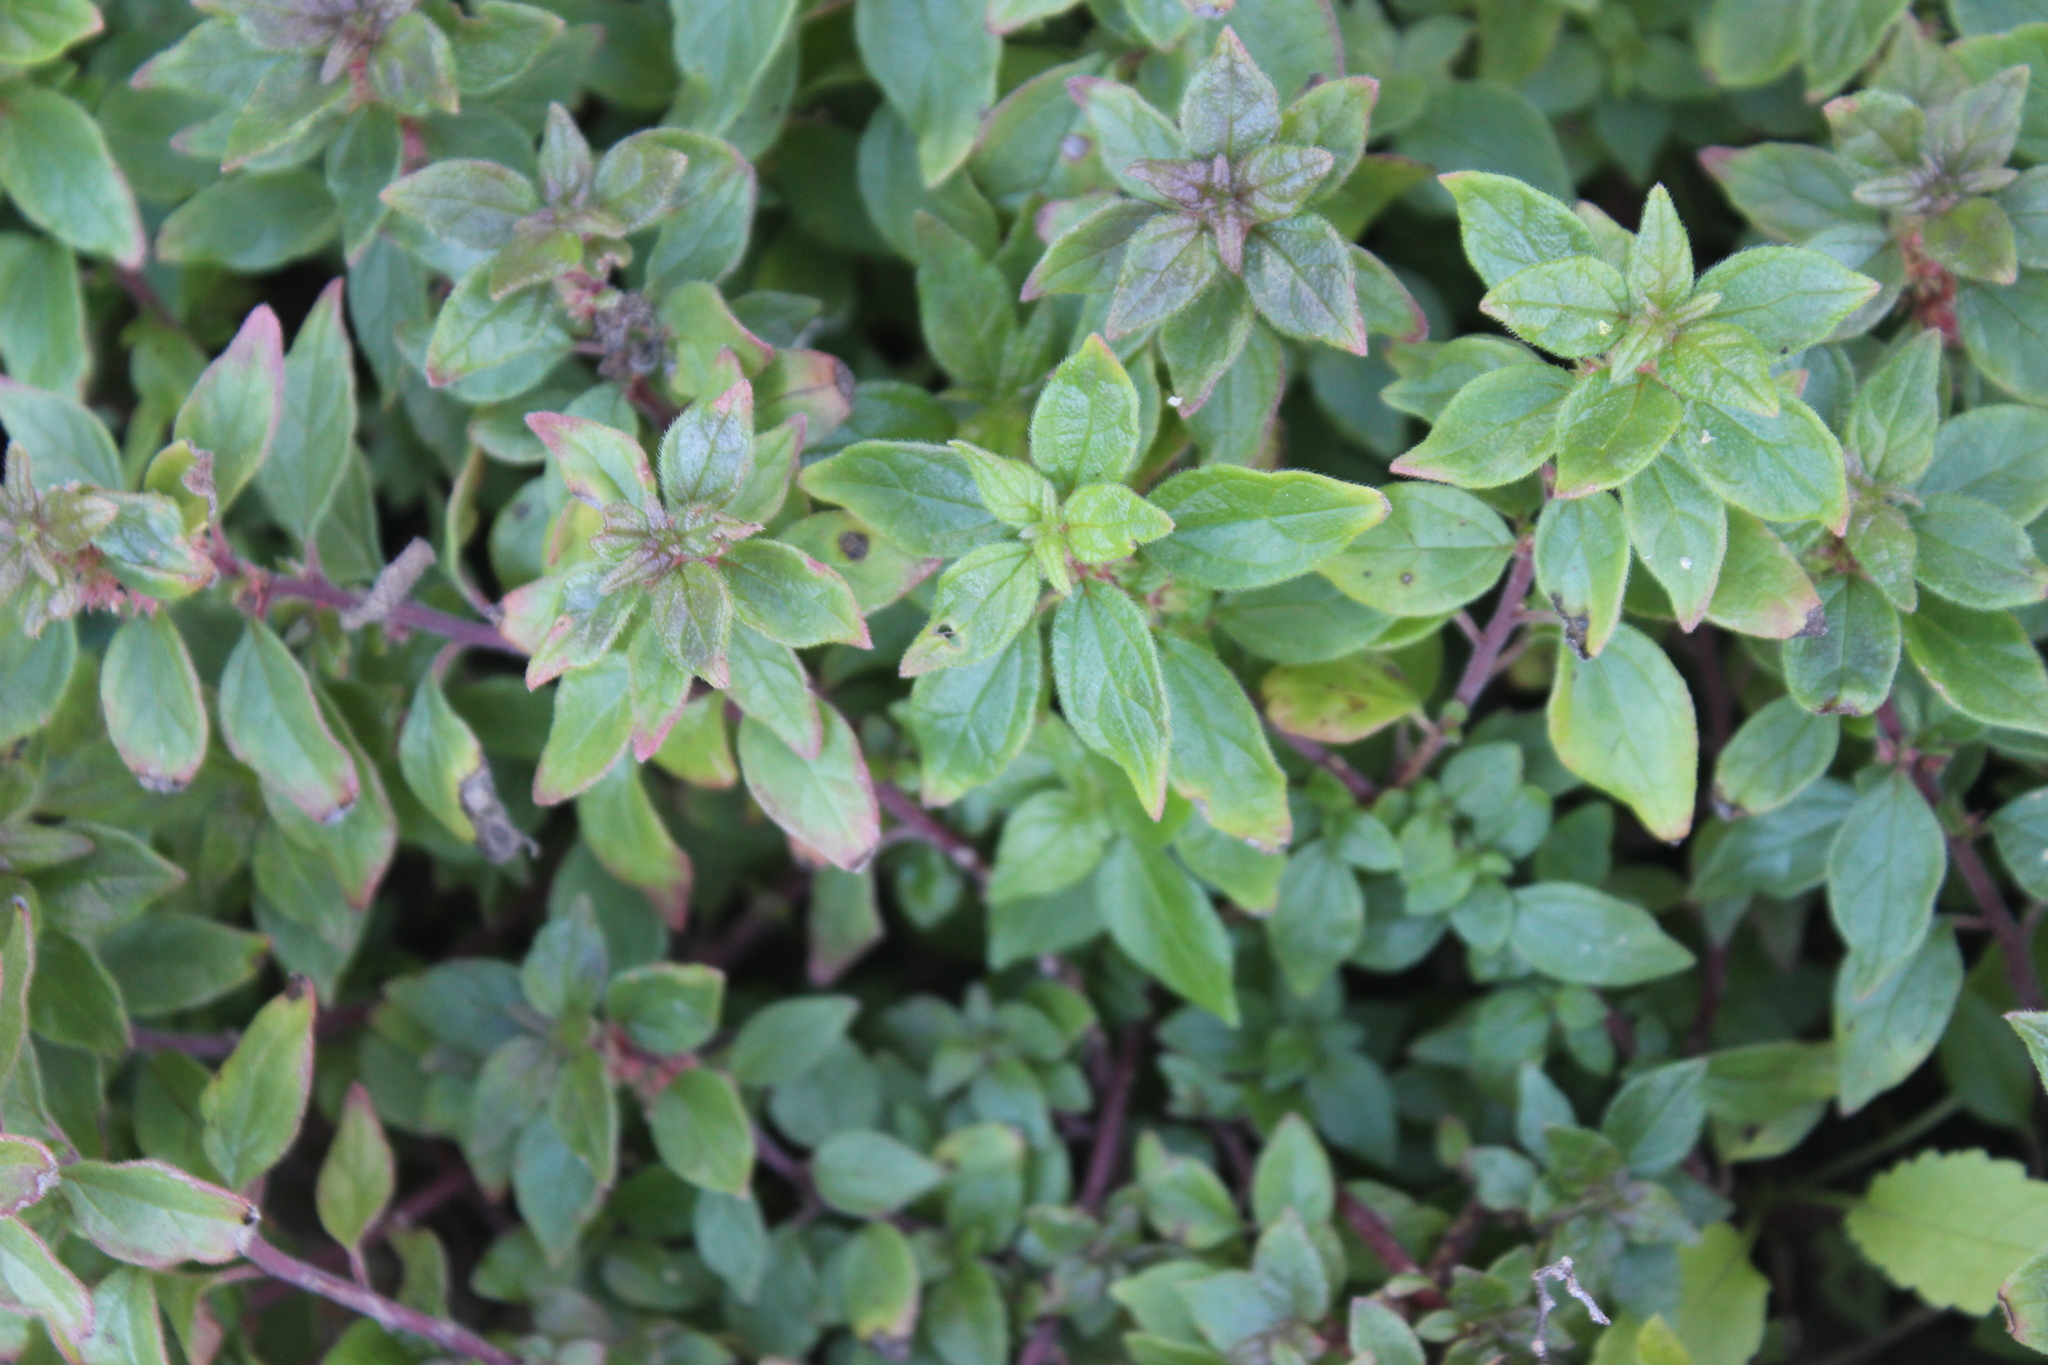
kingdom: Plantae
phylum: Tracheophyta
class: Magnoliopsida
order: Rosales
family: Urticaceae
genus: Parietaria
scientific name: Parietaria judaica
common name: Pellitory-of-the-wall
